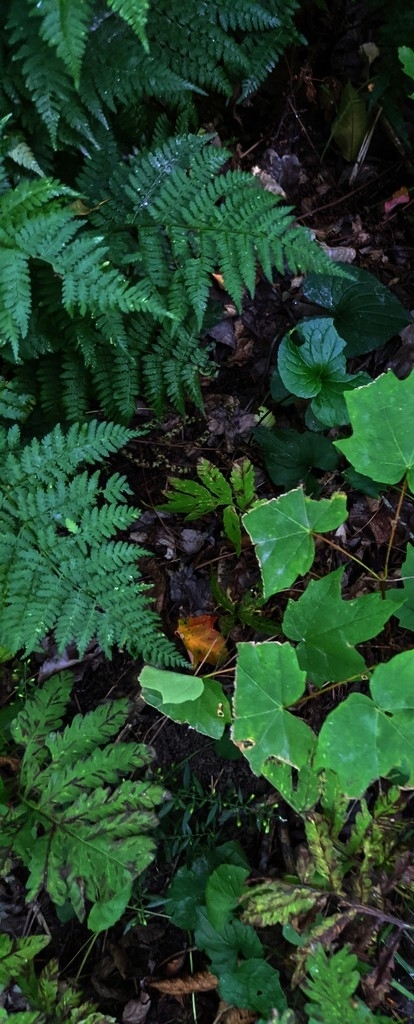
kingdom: Plantae
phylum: Tracheophyta
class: Polypodiopsida
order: Polypodiales
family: Dryopteridaceae
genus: Dryopteris
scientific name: Dryopteris intermedia
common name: Evergreen wood fern
